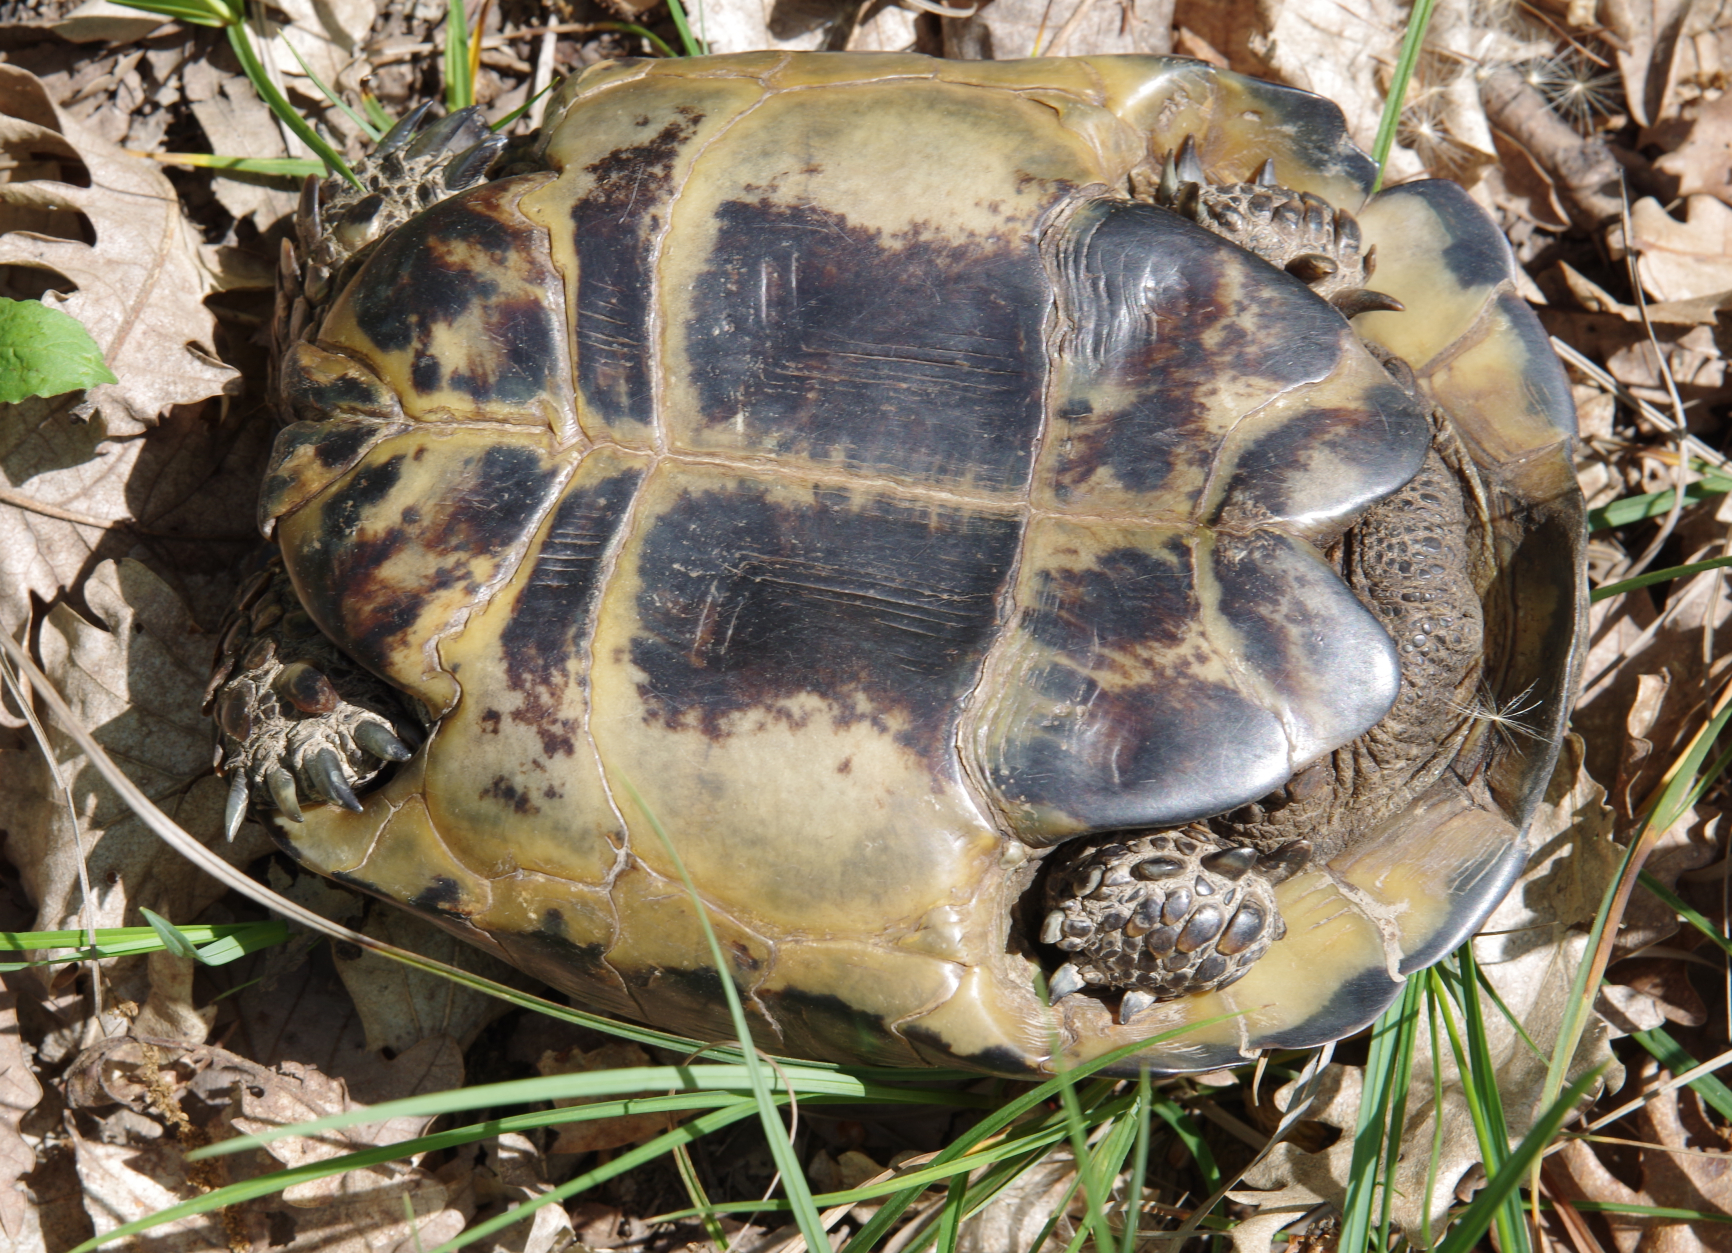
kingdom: Animalia
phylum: Chordata
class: Testudines
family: Testudinidae
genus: Testudo
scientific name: Testudo graeca
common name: Common tortoise
